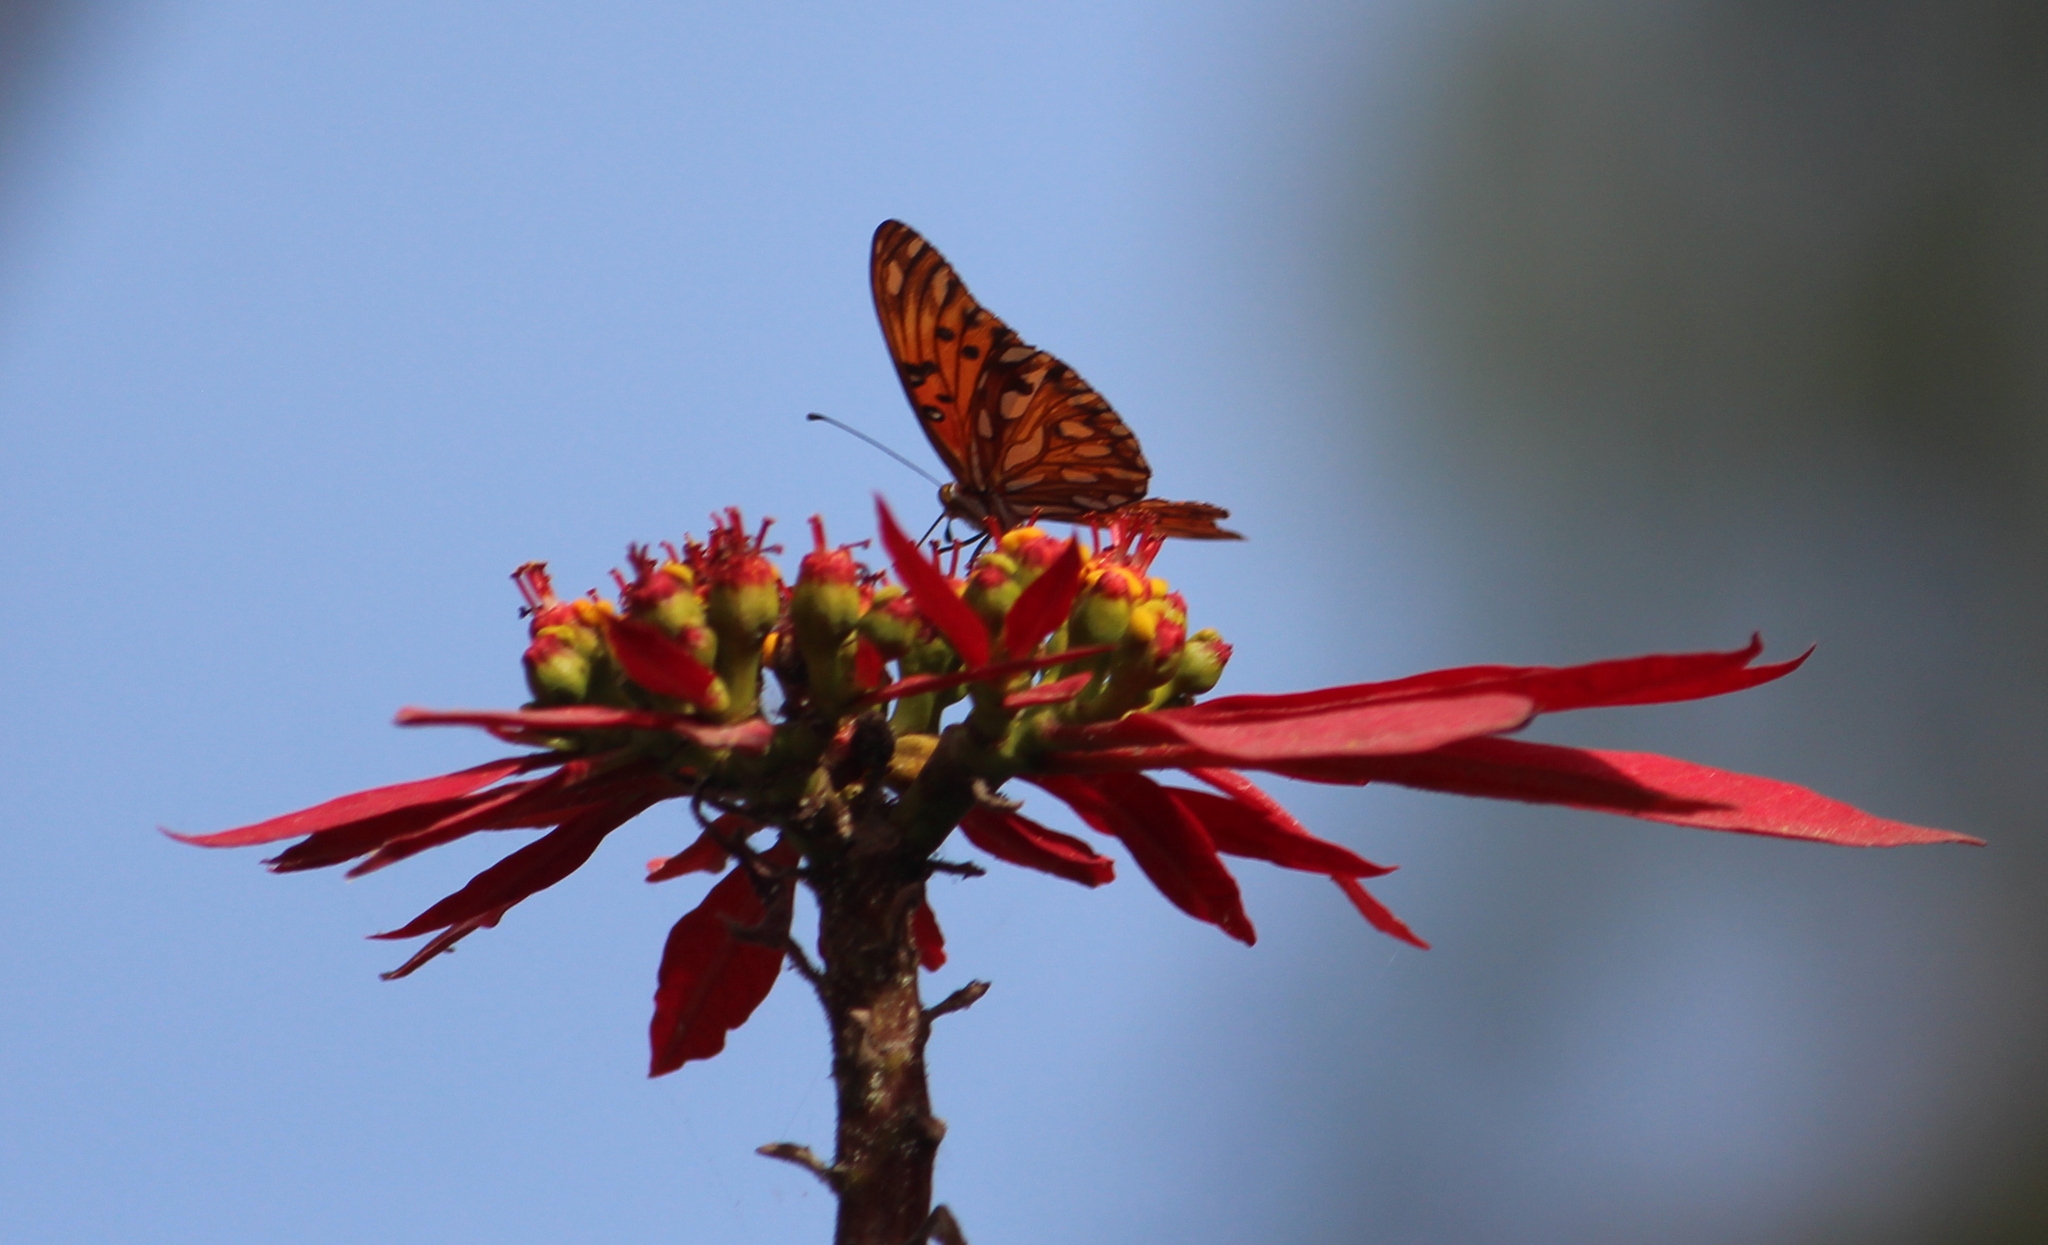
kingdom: Animalia
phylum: Arthropoda
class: Insecta
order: Lepidoptera
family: Nymphalidae
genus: Dione
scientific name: Dione vanillae
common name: Gulf fritillary
